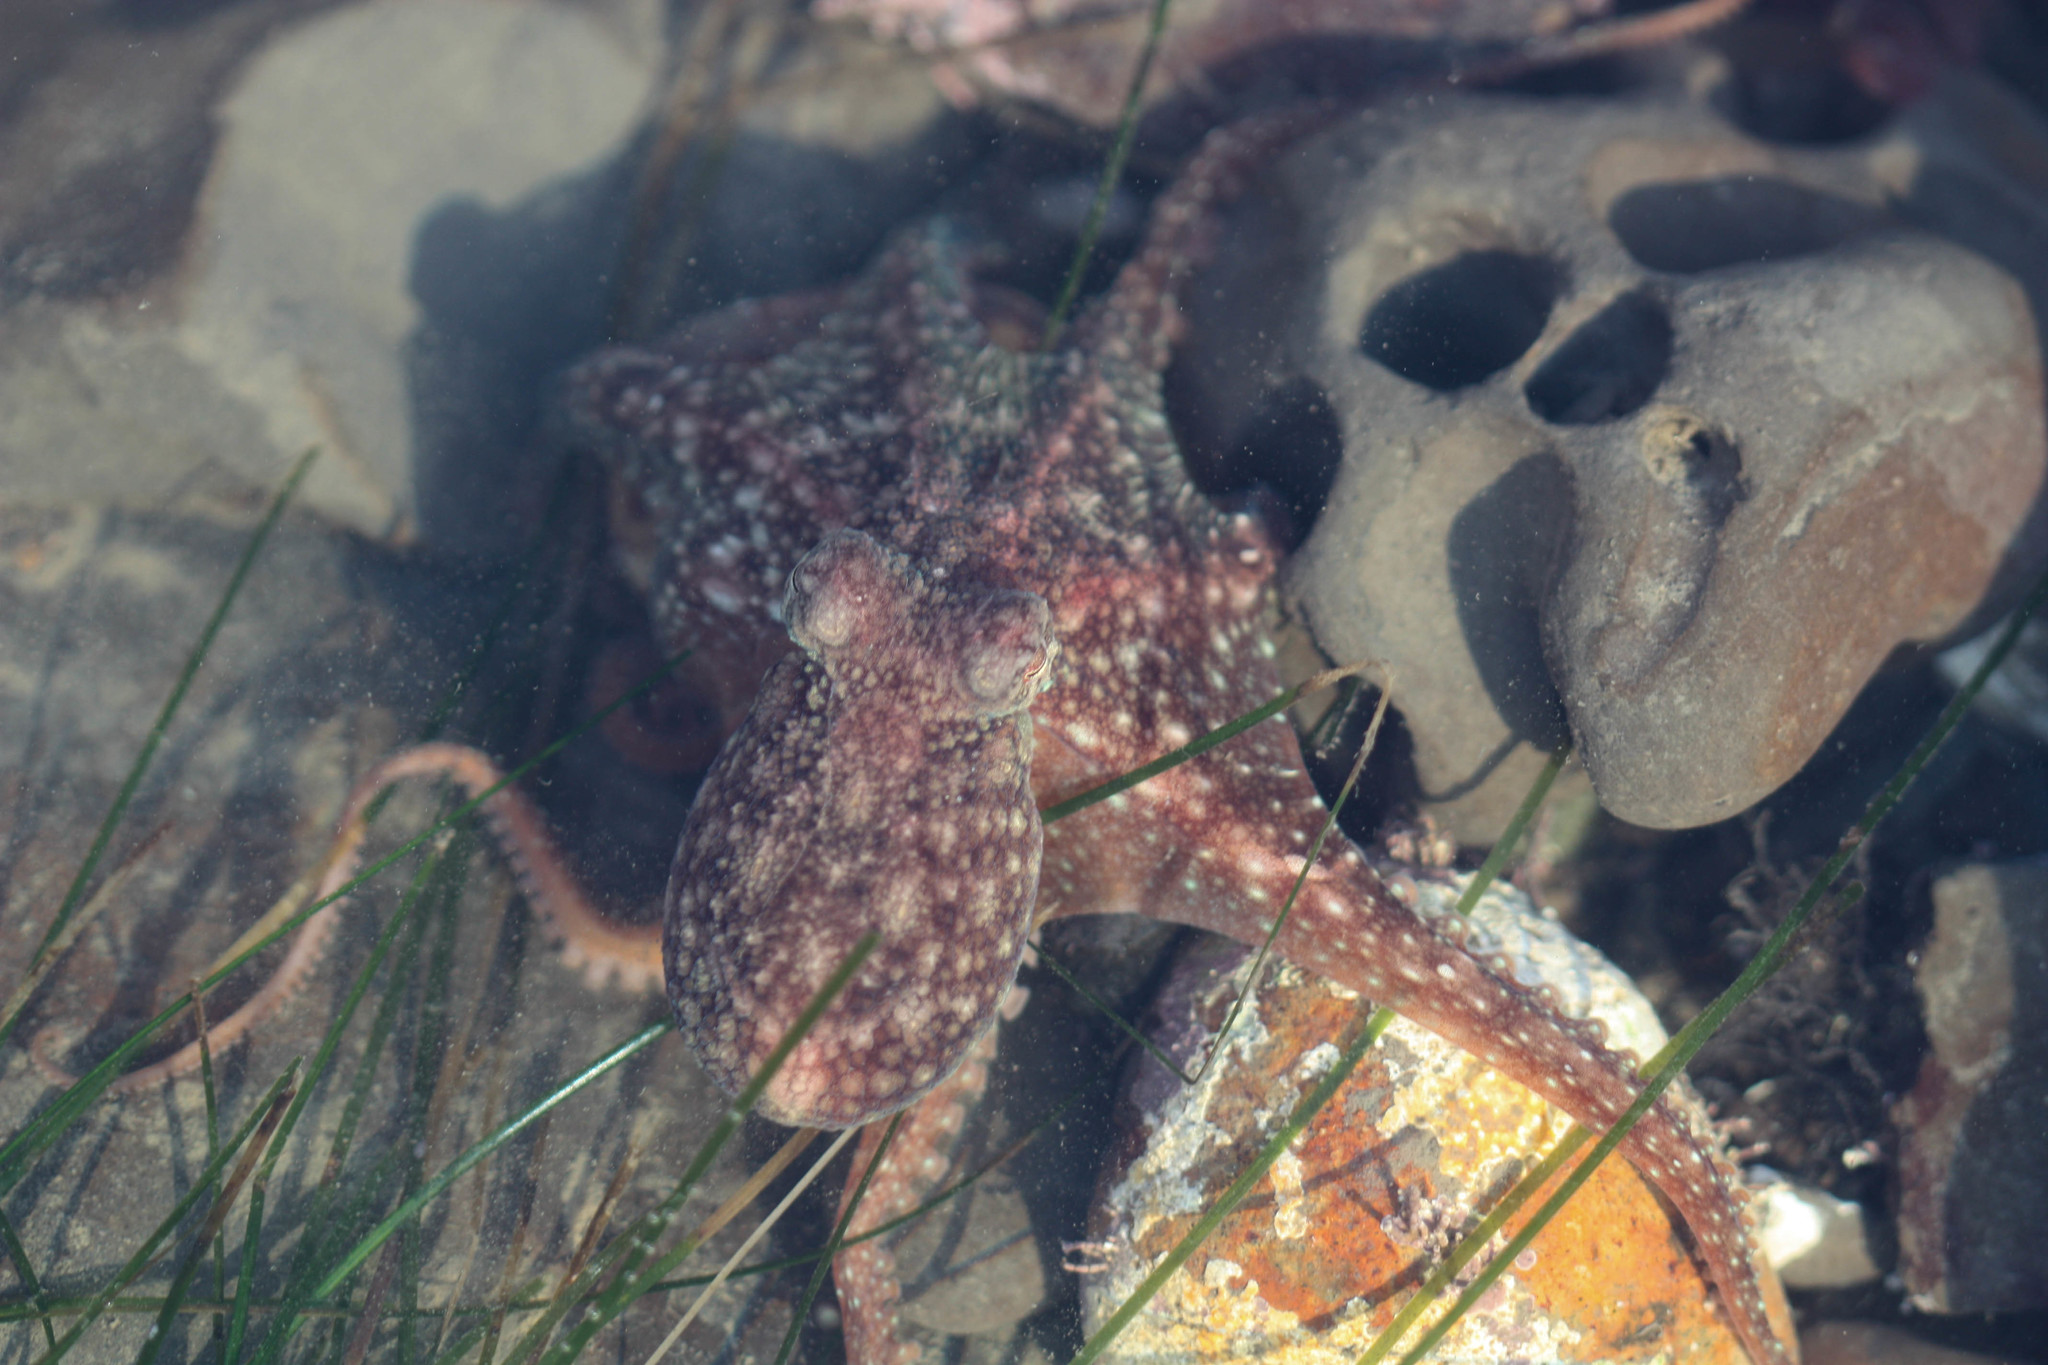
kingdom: Animalia
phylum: Mollusca
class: Cephalopoda
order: Octopoda
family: Octopodidae
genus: Octopus
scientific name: Octopus rubescens
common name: East pacific red octopus
